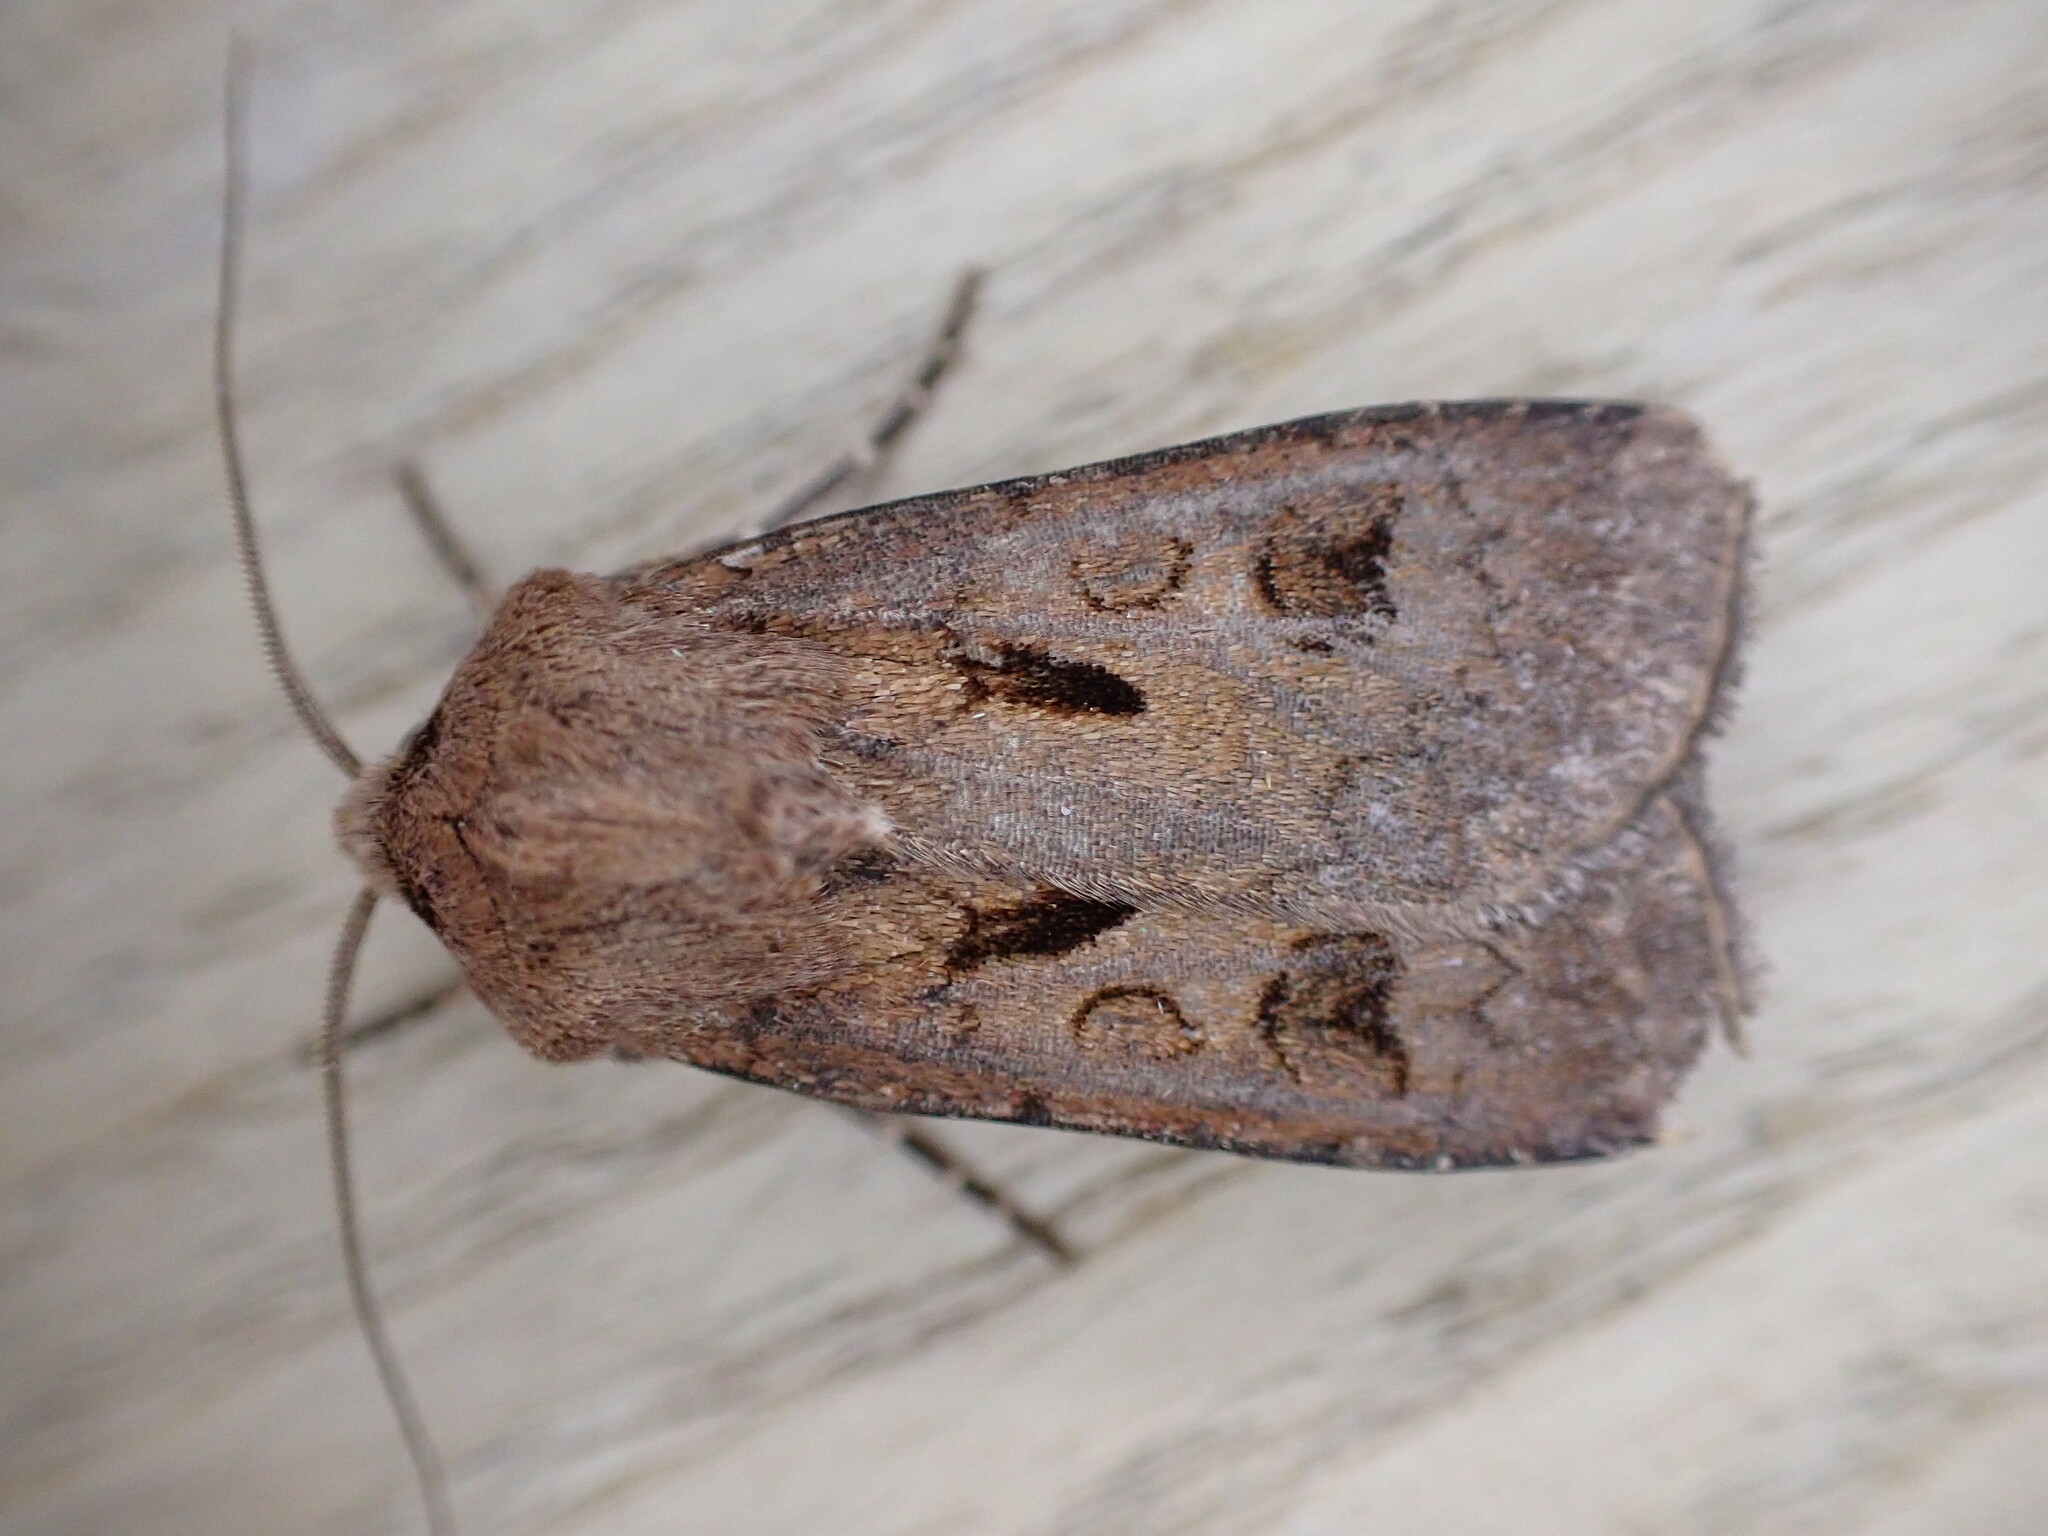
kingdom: Animalia
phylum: Arthropoda
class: Insecta
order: Lepidoptera
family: Noctuidae
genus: Agrotis
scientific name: Agrotis exclamationis
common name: Heart and dart
